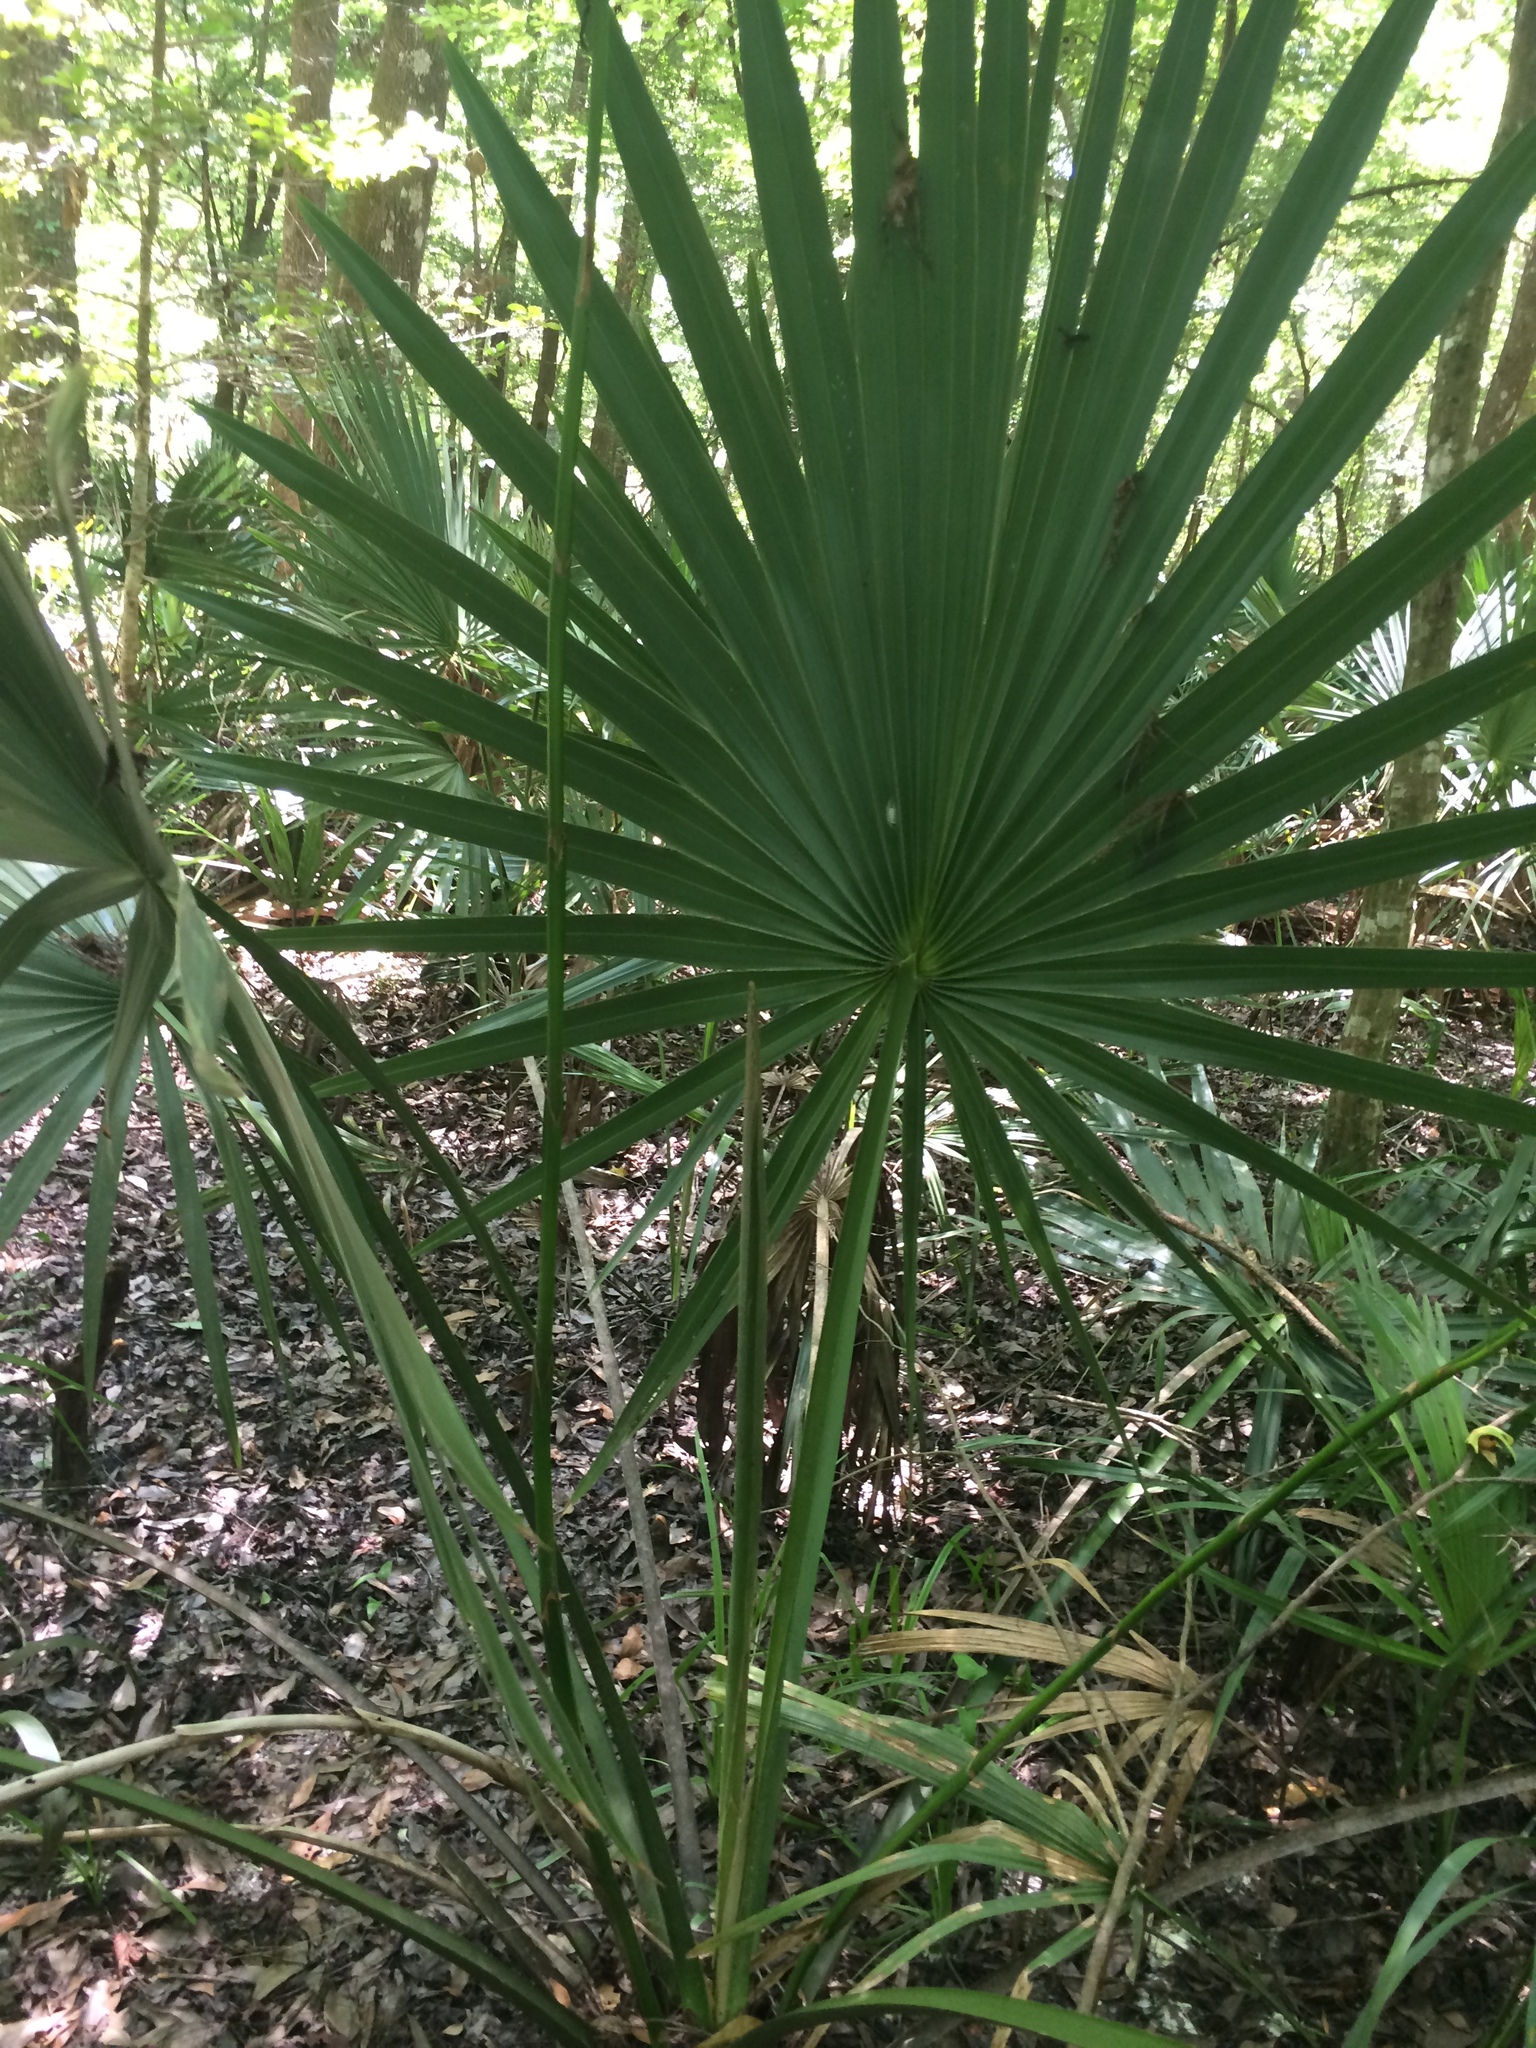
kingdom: Plantae
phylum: Tracheophyta
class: Liliopsida
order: Arecales
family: Arecaceae
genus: Sabal
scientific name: Sabal minor
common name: Dwarf palmetto
